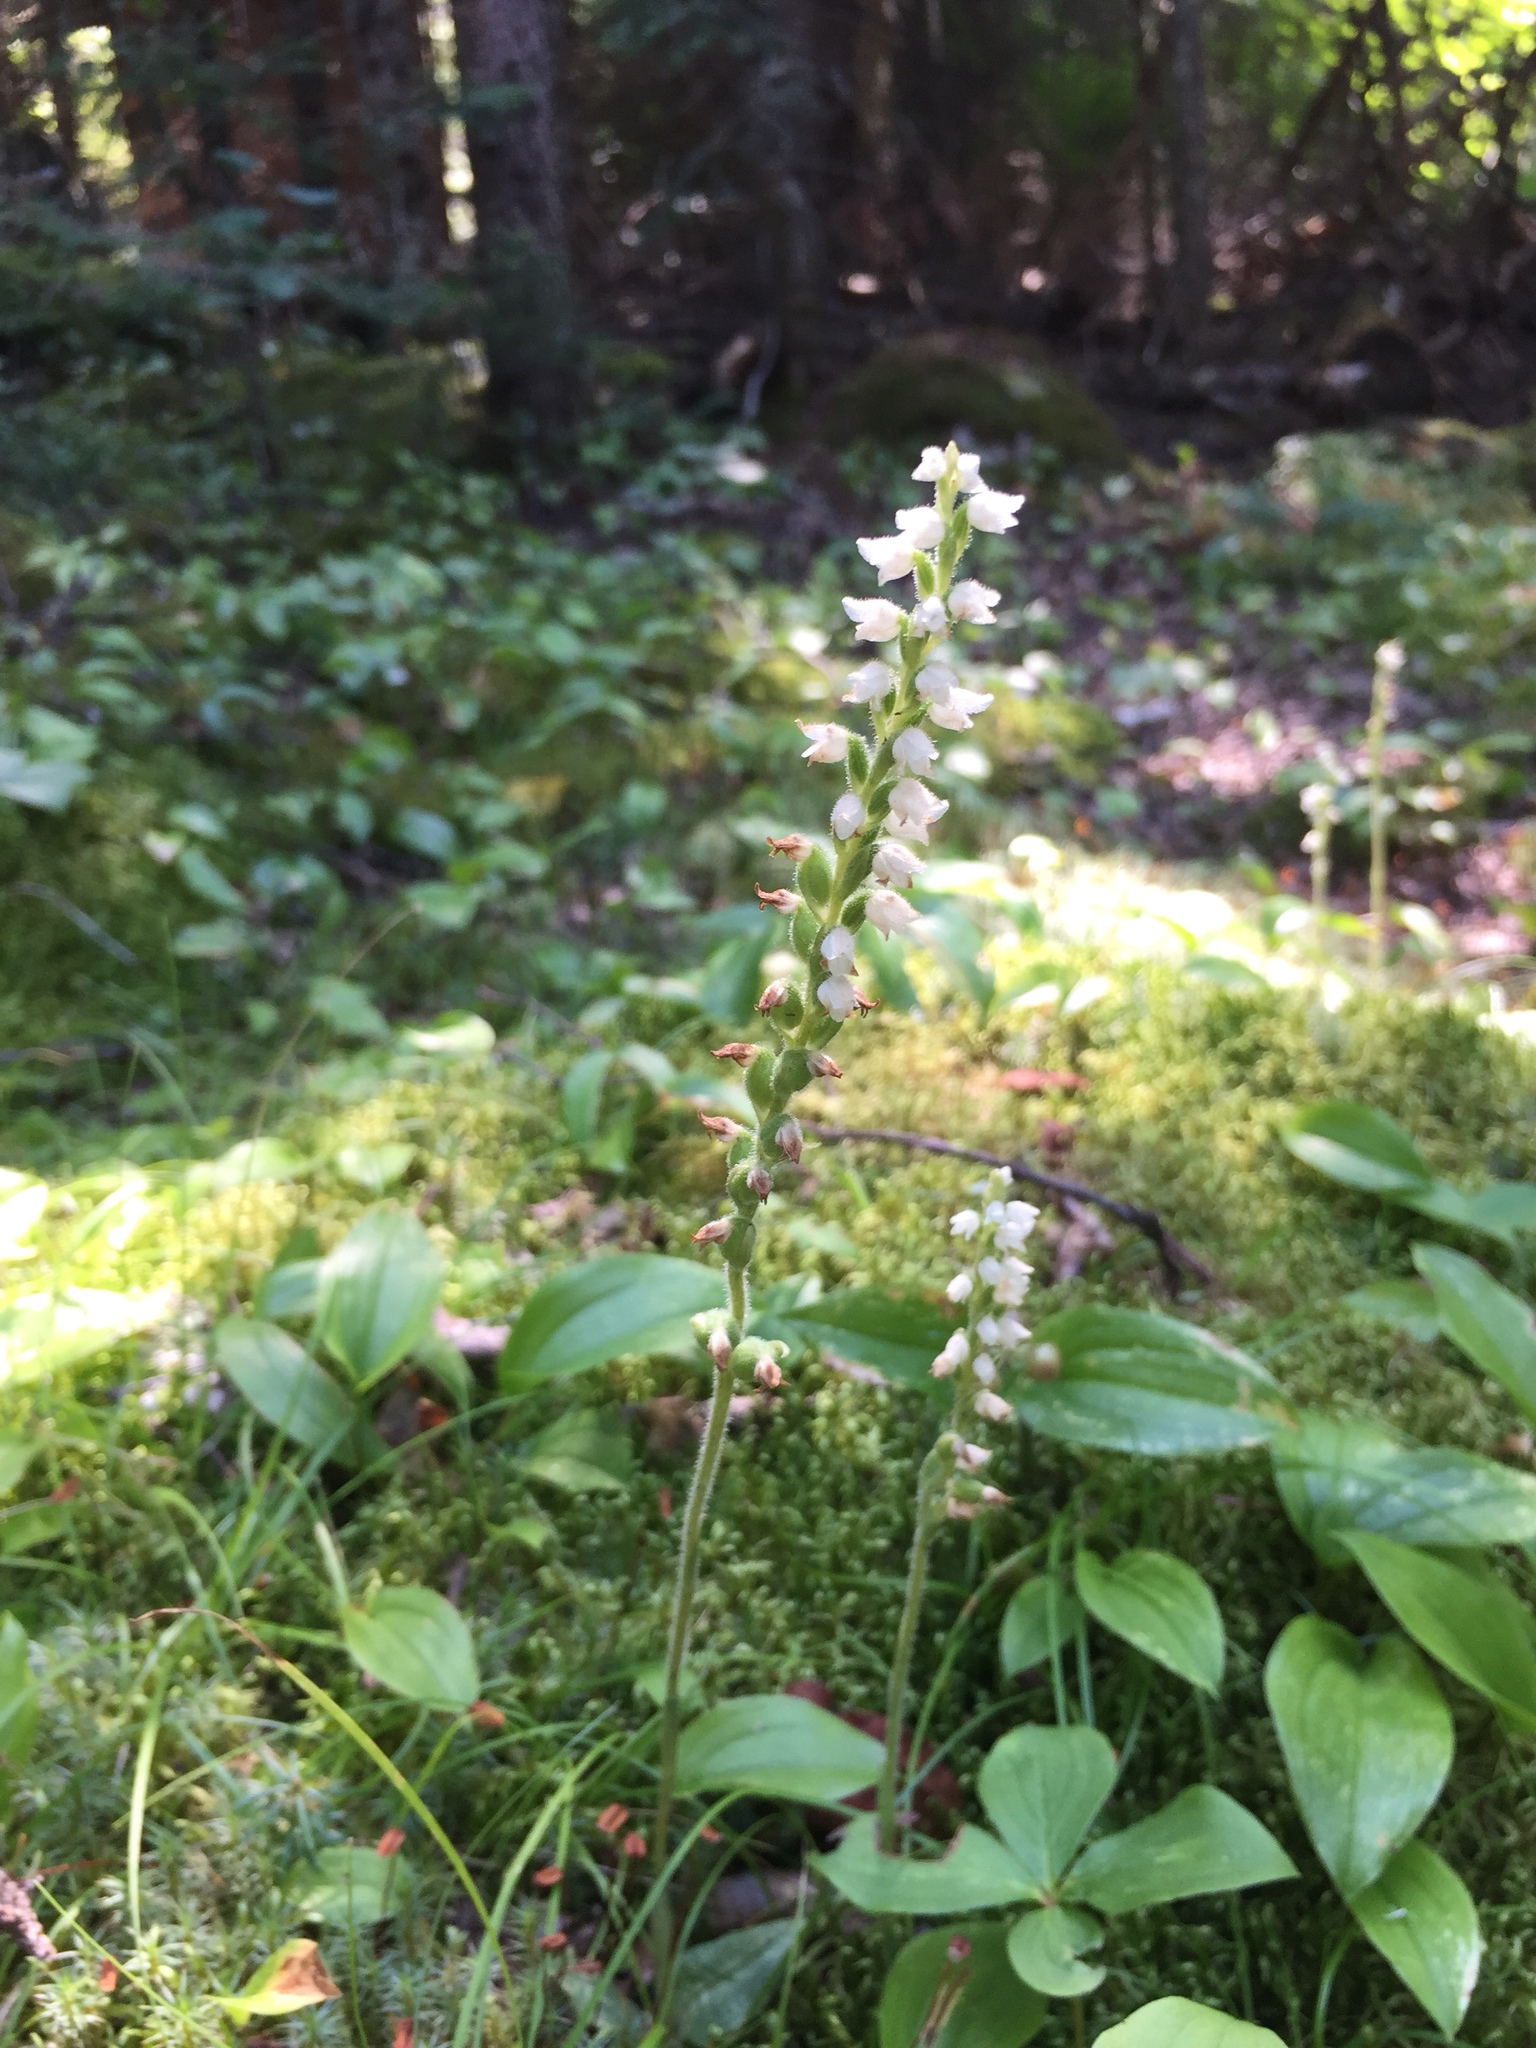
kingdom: Plantae
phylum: Tracheophyta
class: Liliopsida
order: Asparagales
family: Orchidaceae
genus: Goodyera
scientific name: Goodyera repens
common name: Creeping lady's-tresses
